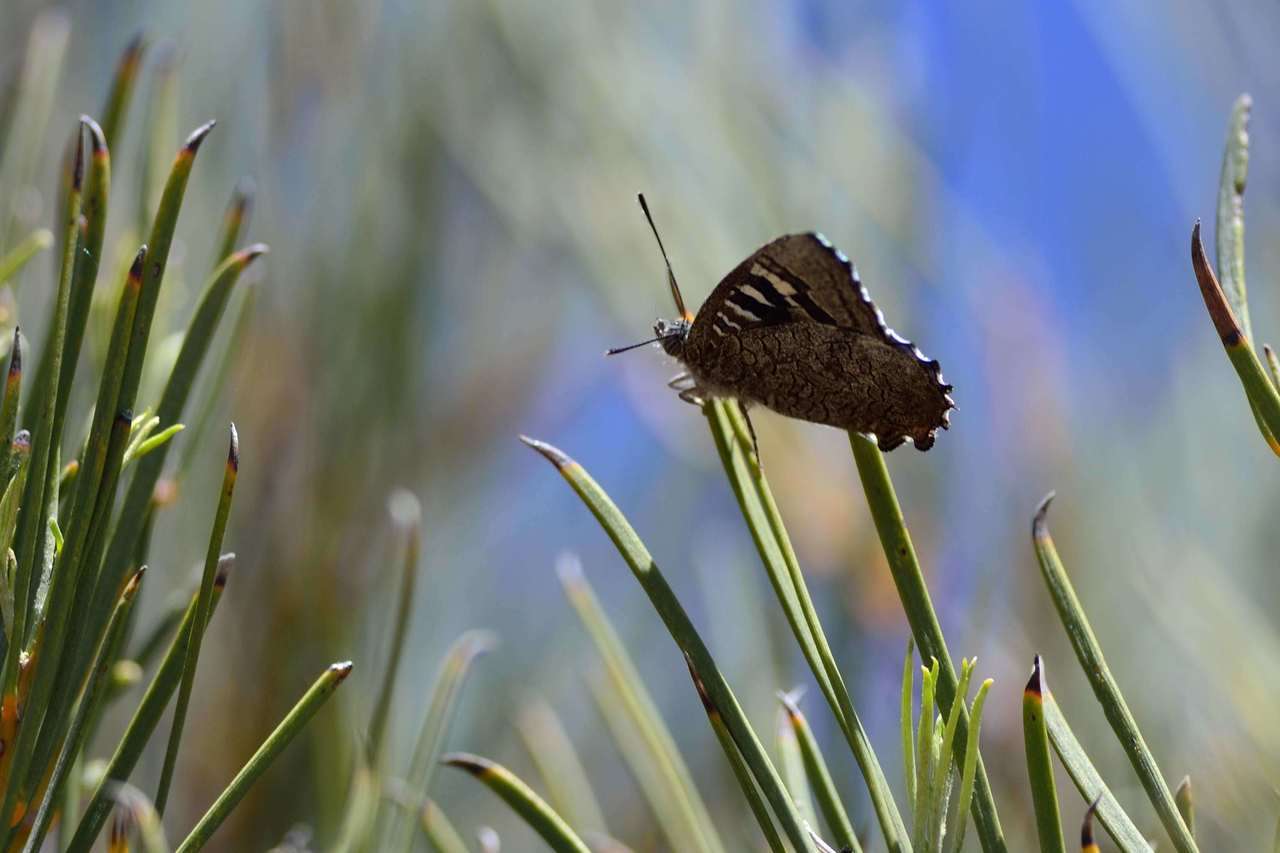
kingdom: Animalia
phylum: Arthropoda
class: Insecta
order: Lepidoptera
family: Lycaenidae
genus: Ogyris
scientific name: Ogyris amaryllis
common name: Satin azure
